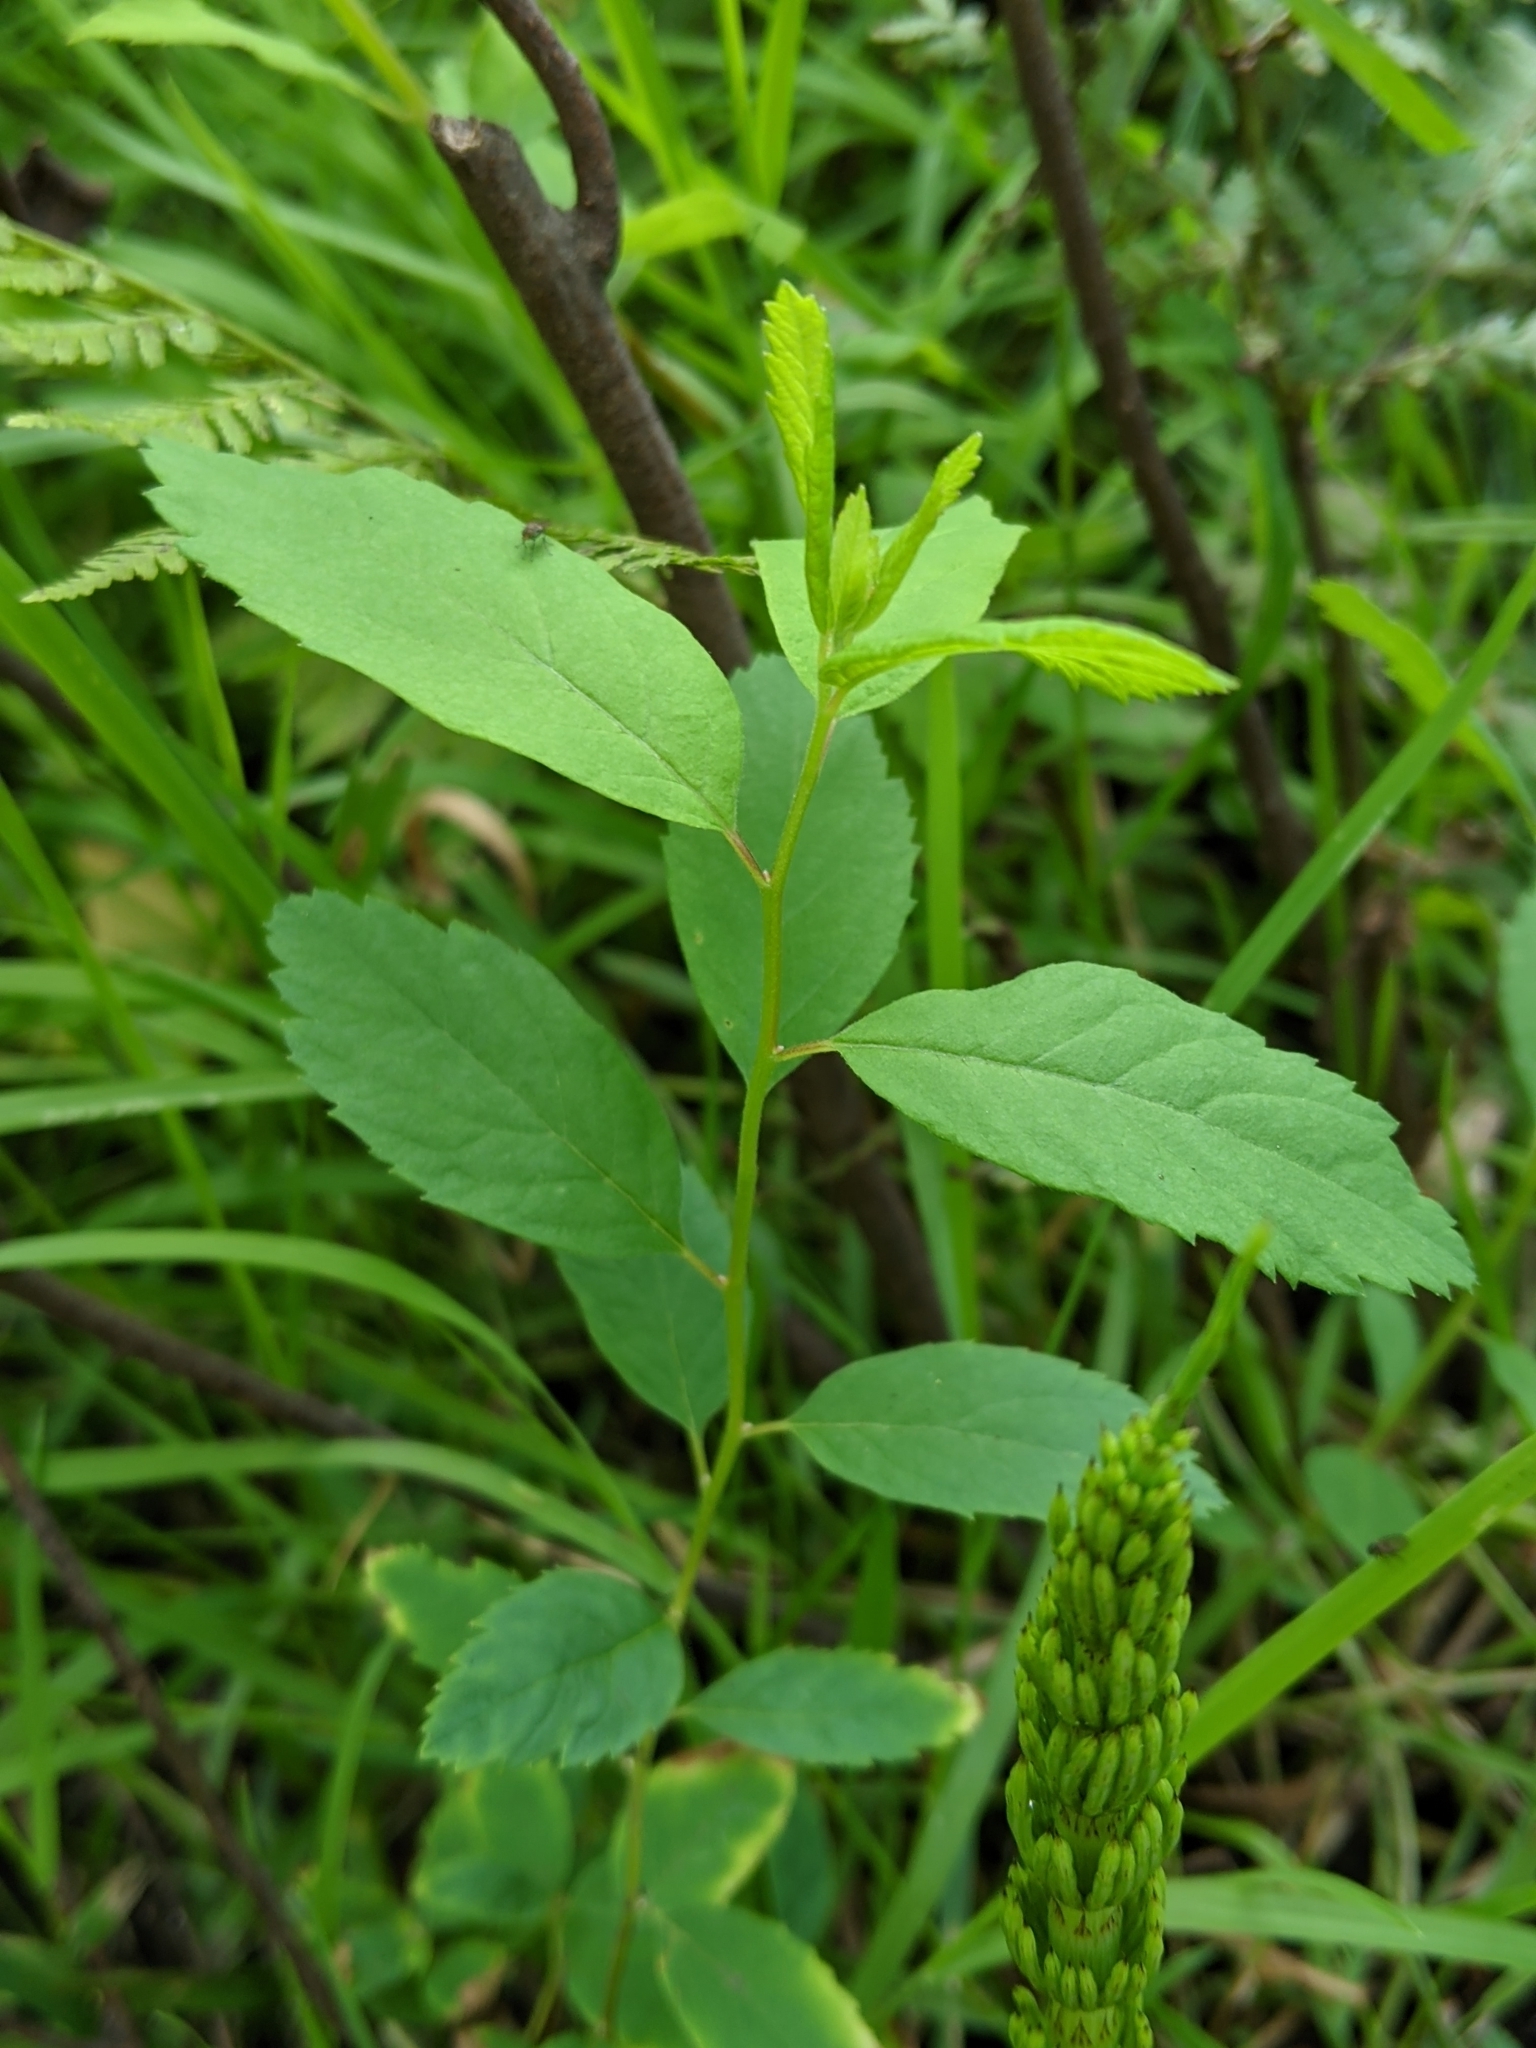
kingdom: Plantae
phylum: Tracheophyta
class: Magnoliopsida
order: Rosales
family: Rosaceae
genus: Spiraea
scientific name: Spiraea douglasii
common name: Steeplebush
